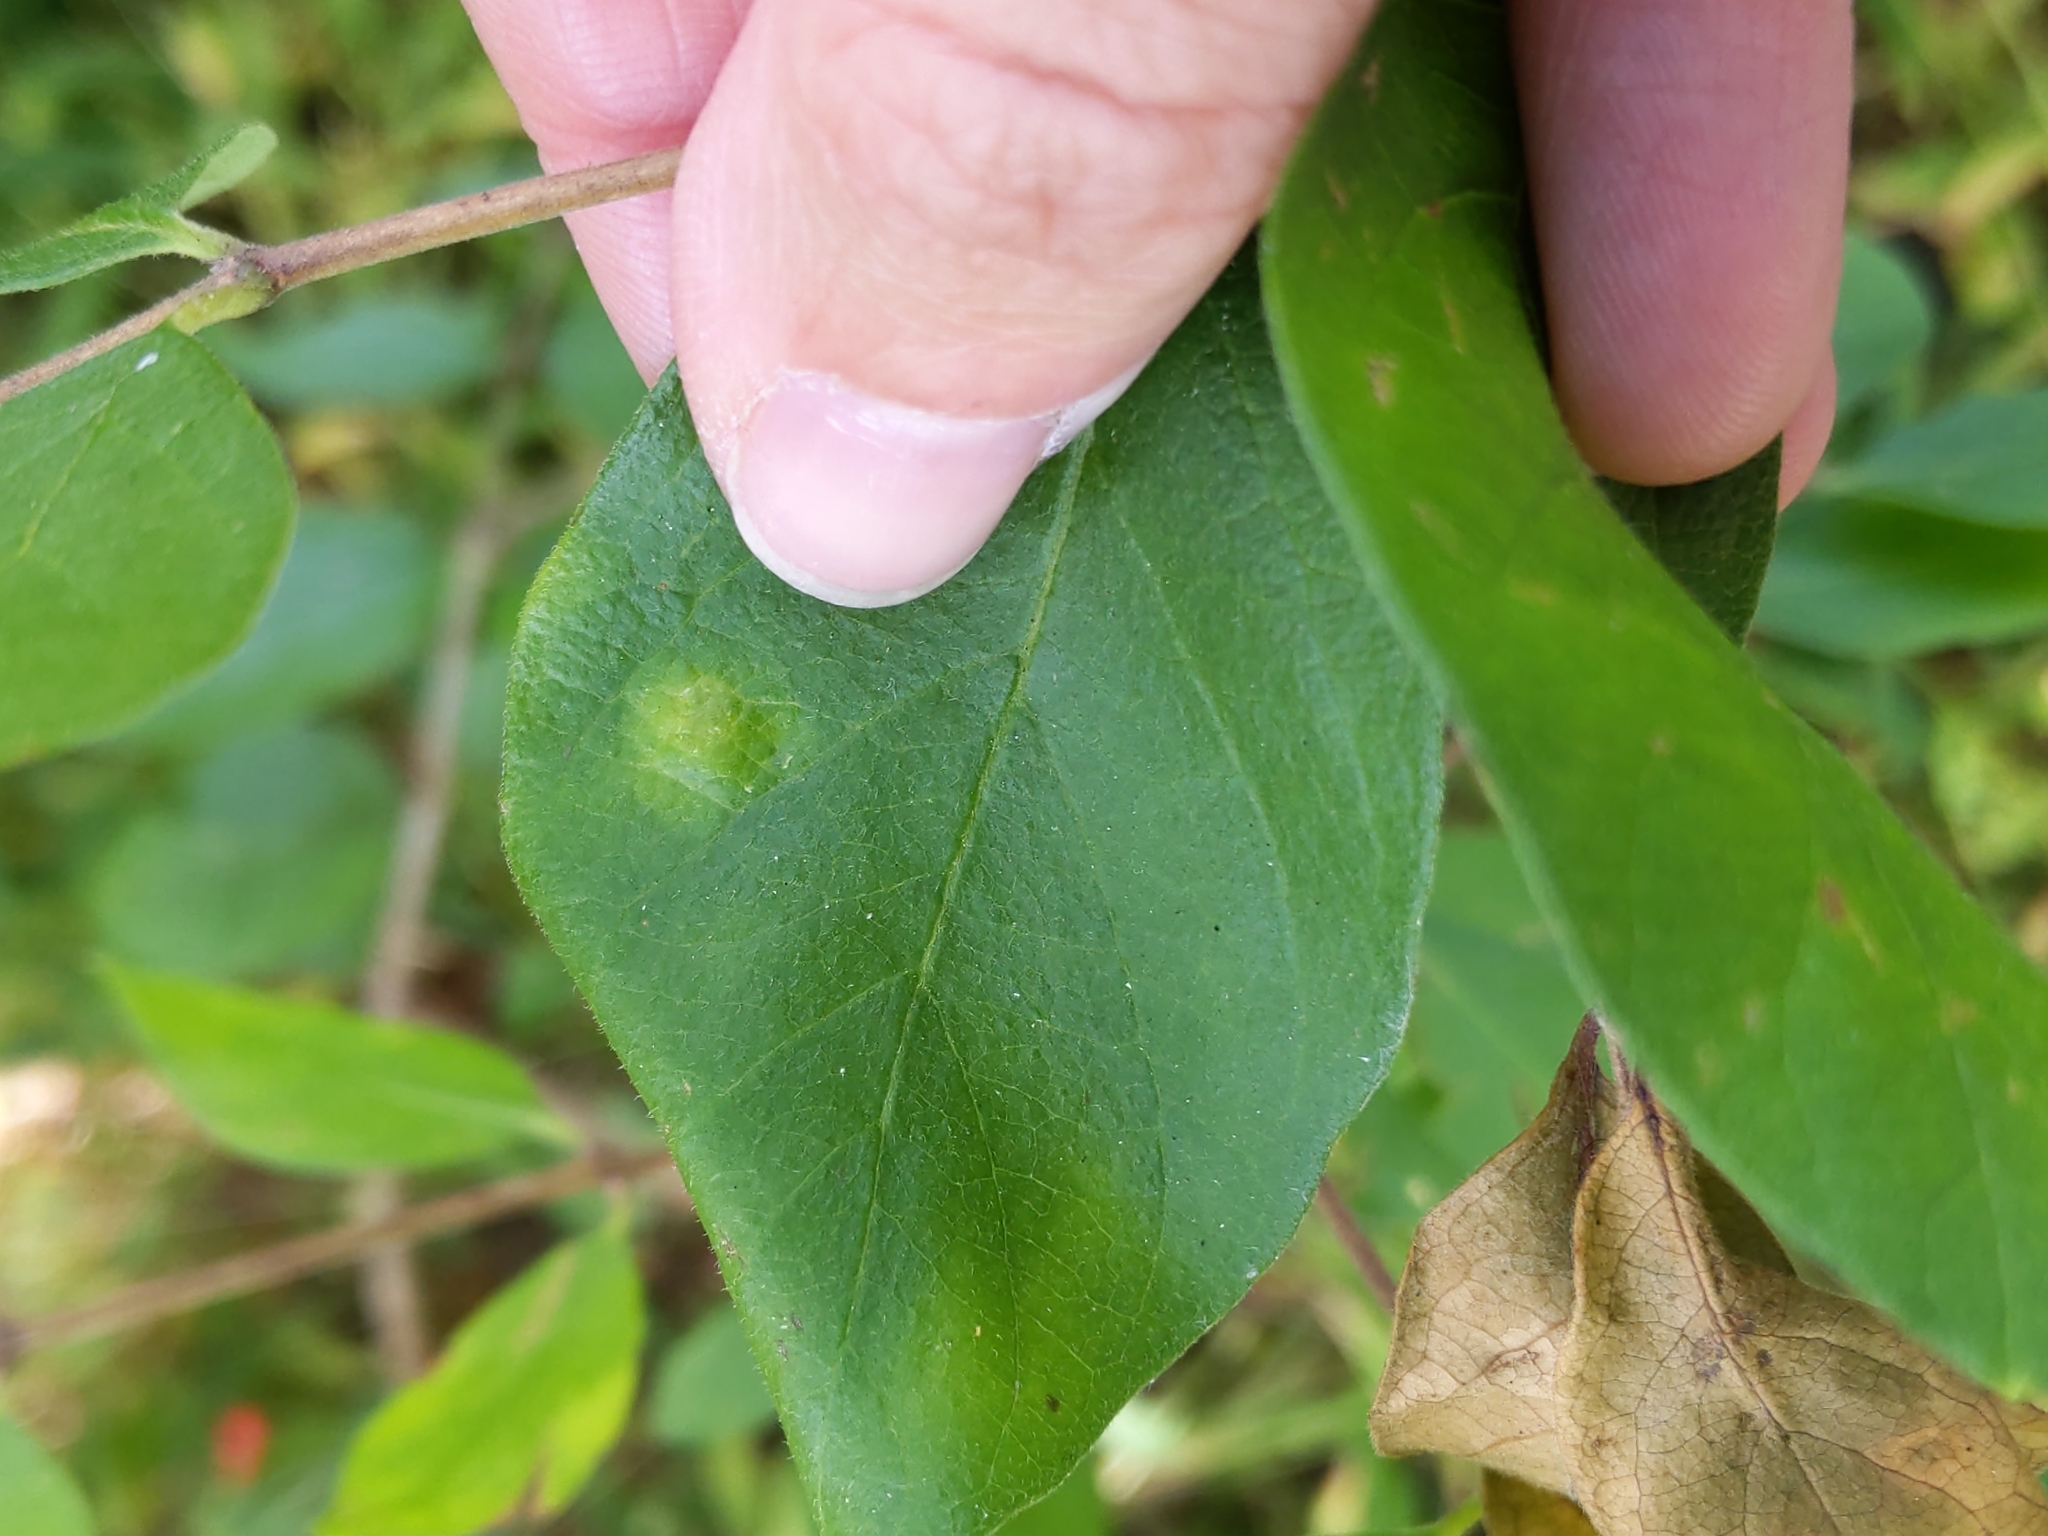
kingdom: Animalia
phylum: Arthropoda
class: Insecta
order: Lepidoptera
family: Gracillariidae
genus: Phyllonorycter
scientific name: Phyllonorycter
